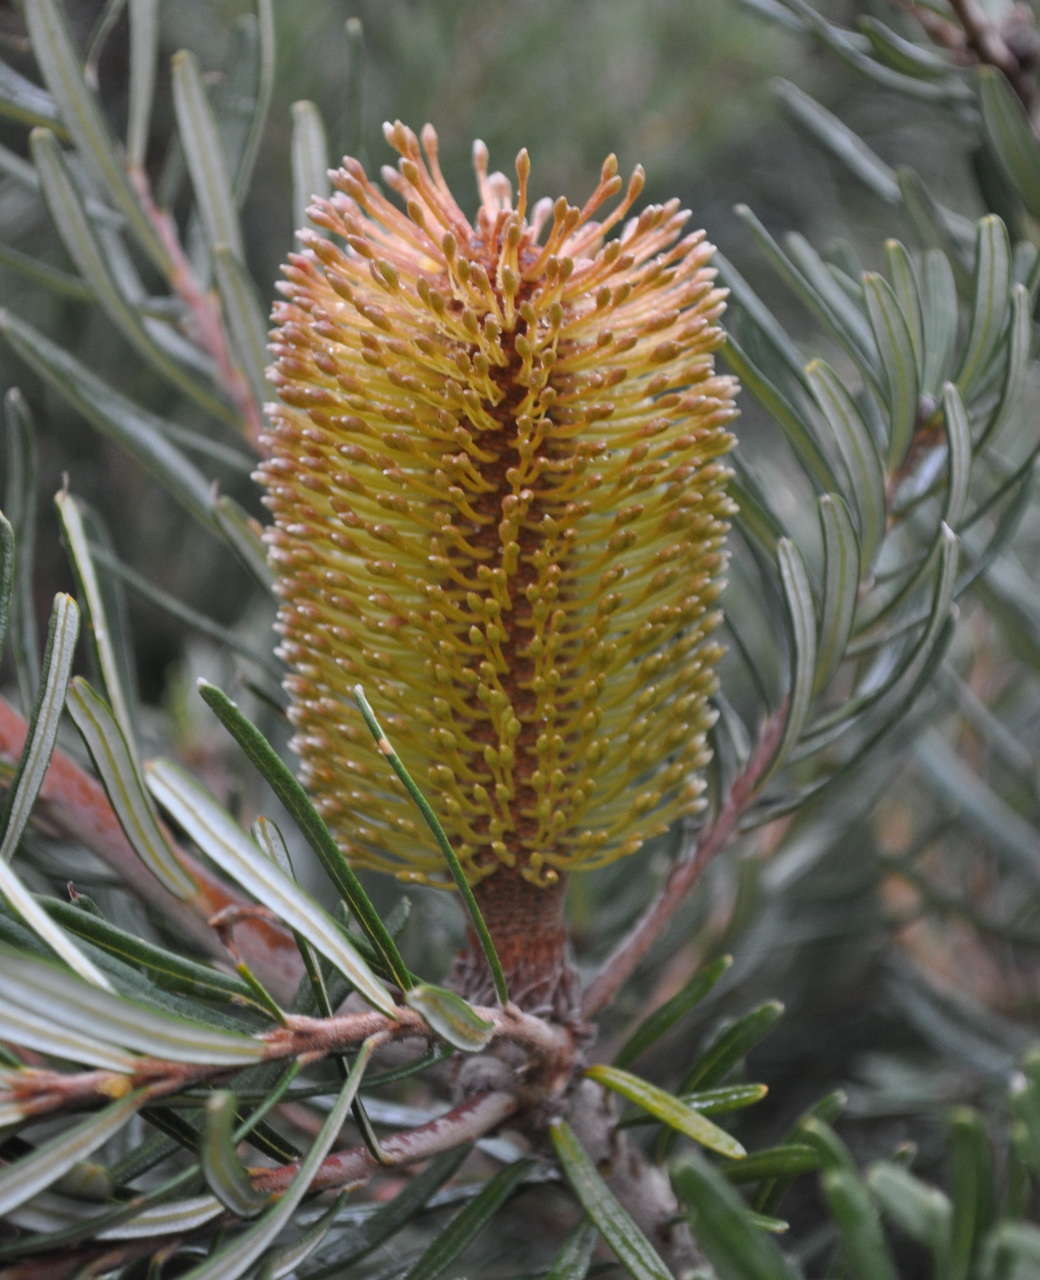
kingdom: Plantae
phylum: Tracheophyta
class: Magnoliopsida
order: Proteales
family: Proteaceae
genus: Banksia
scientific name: Banksia marginata
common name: Silver banksia
